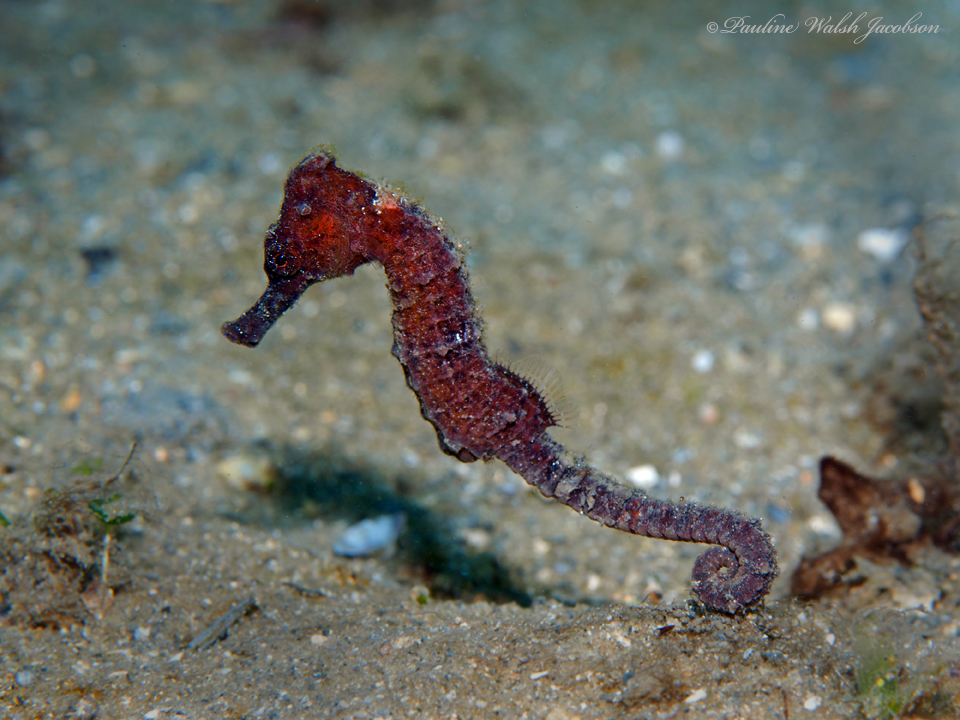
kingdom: Animalia
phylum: Chordata
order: Syngnathiformes
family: Syngnathidae
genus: Hippocampus
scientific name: Hippocampus reidi
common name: Slender seahorse
